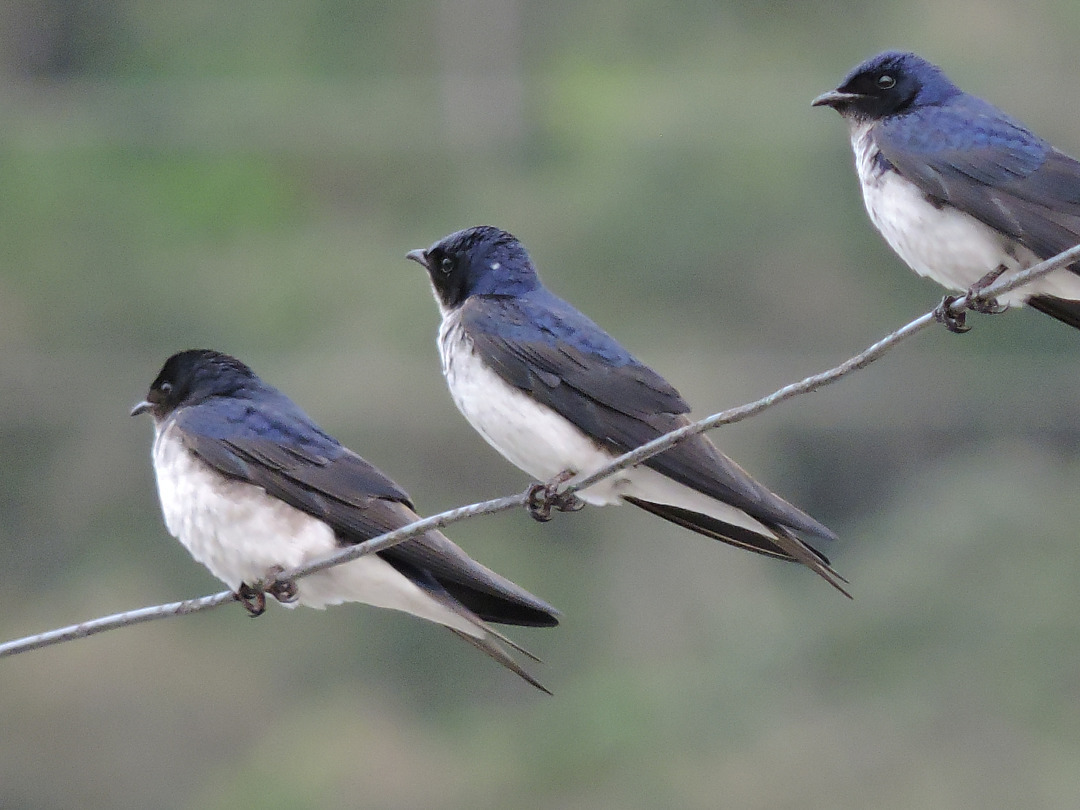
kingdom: Animalia
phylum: Chordata
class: Aves
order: Passeriformes
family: Hirundinidae
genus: Progne
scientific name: Progne chalybea
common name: Grey-breasted martin
